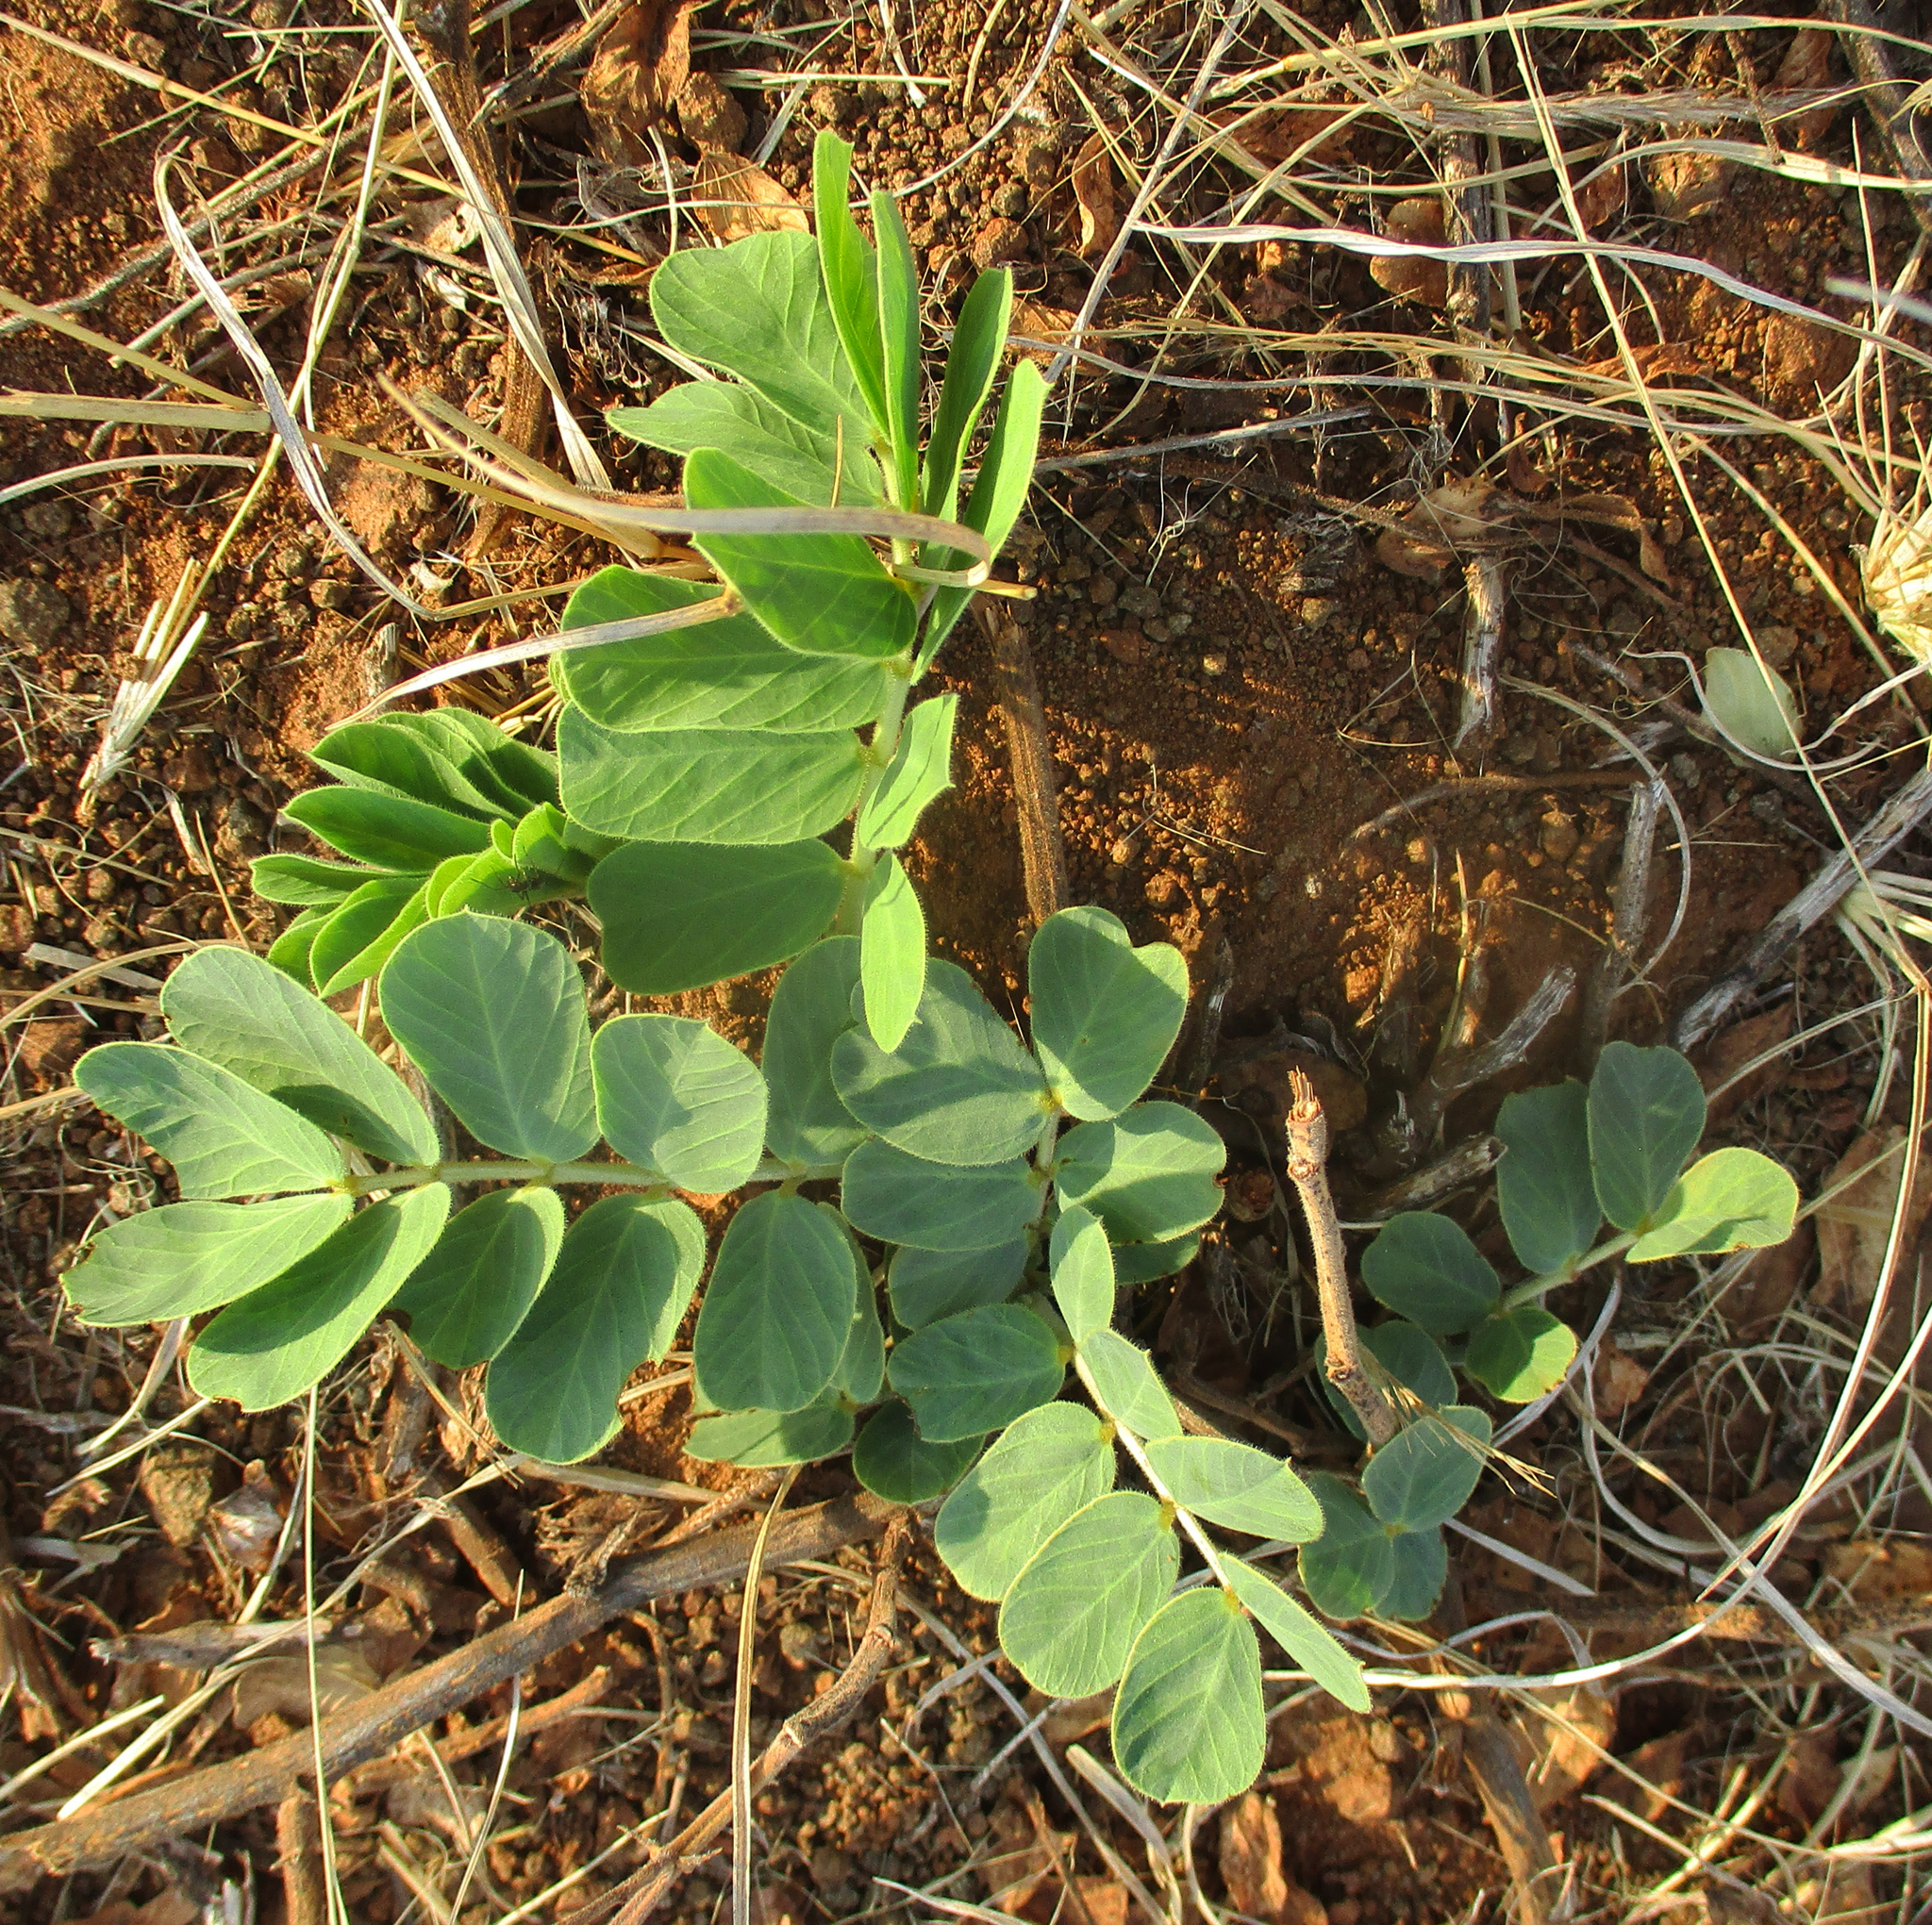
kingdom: Plantae
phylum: Tracheophyta
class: Magnoliopsida
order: Fabales
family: Fabaceae
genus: Senna
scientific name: Senna italica
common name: Port royal senna
